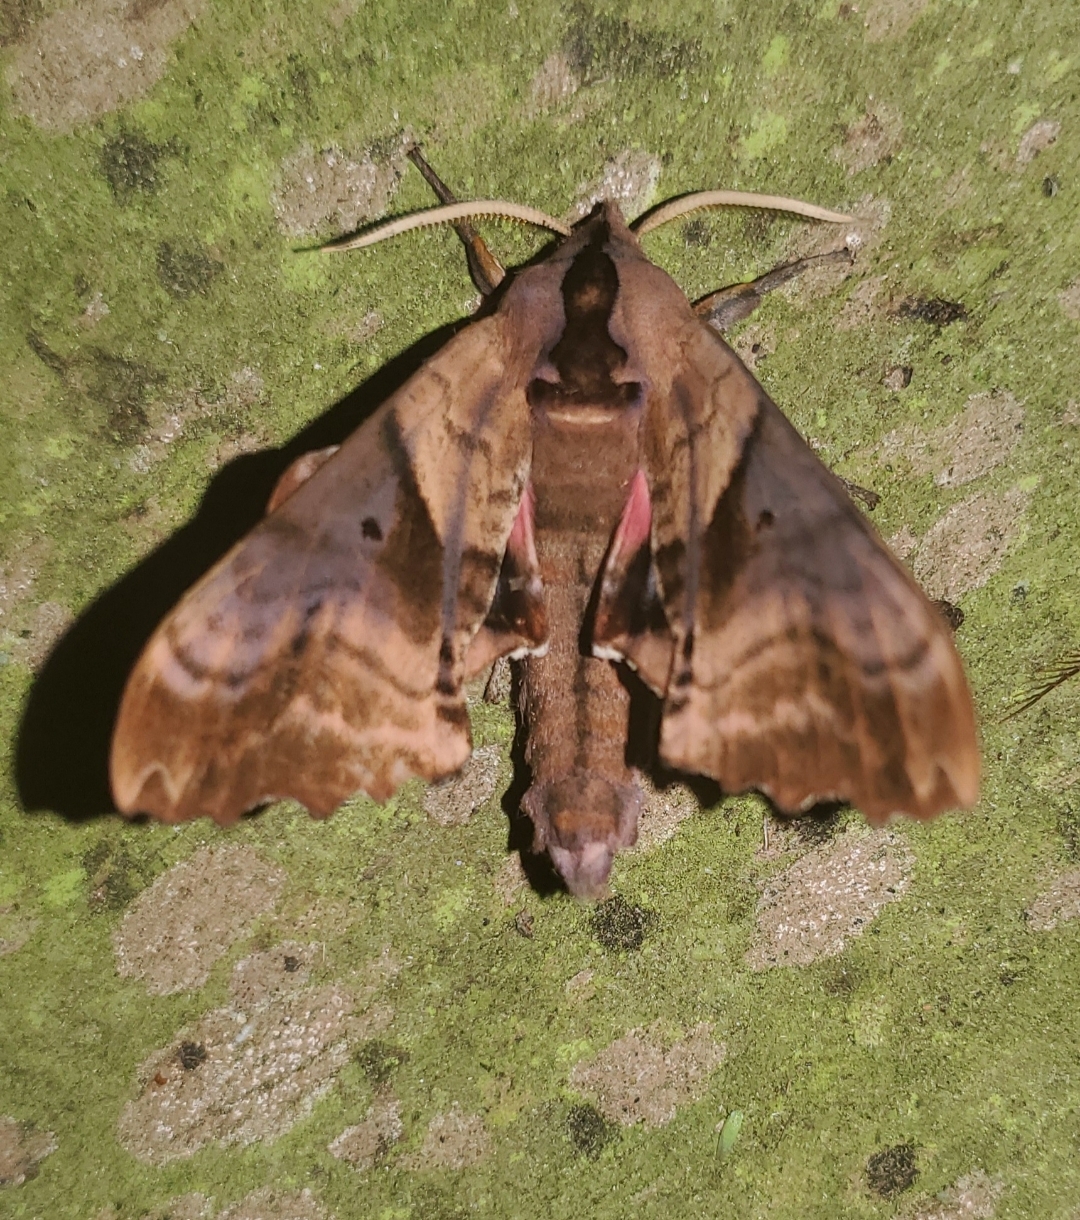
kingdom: Animalia
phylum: Arthropoda
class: Insecta
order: Lepidoptera
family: Sphingidae
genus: Paonias
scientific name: Paonias excaecata
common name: Blind-eyed sphinx
